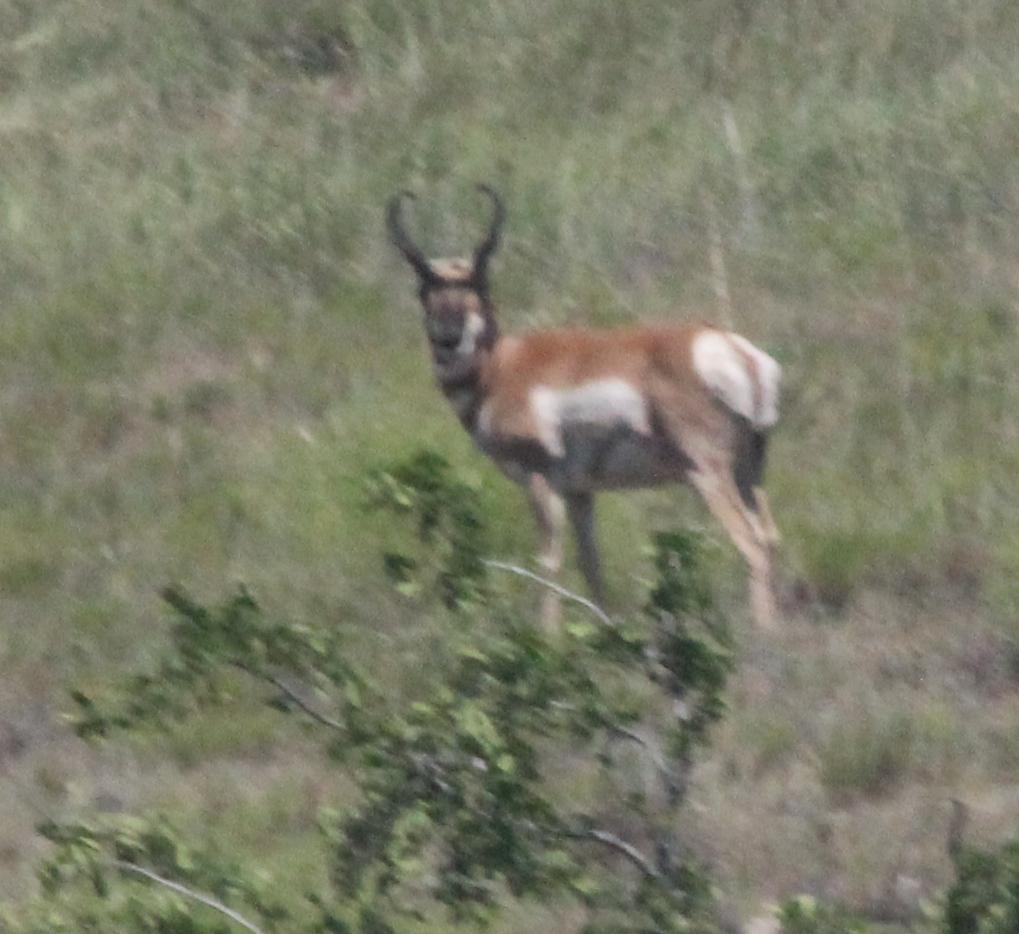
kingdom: Animalia
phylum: Chordata
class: Mammalia
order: Artiodactyla
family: Antilocapridae
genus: Antilocapra
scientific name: Antilocapra americana
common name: Pronghorn
